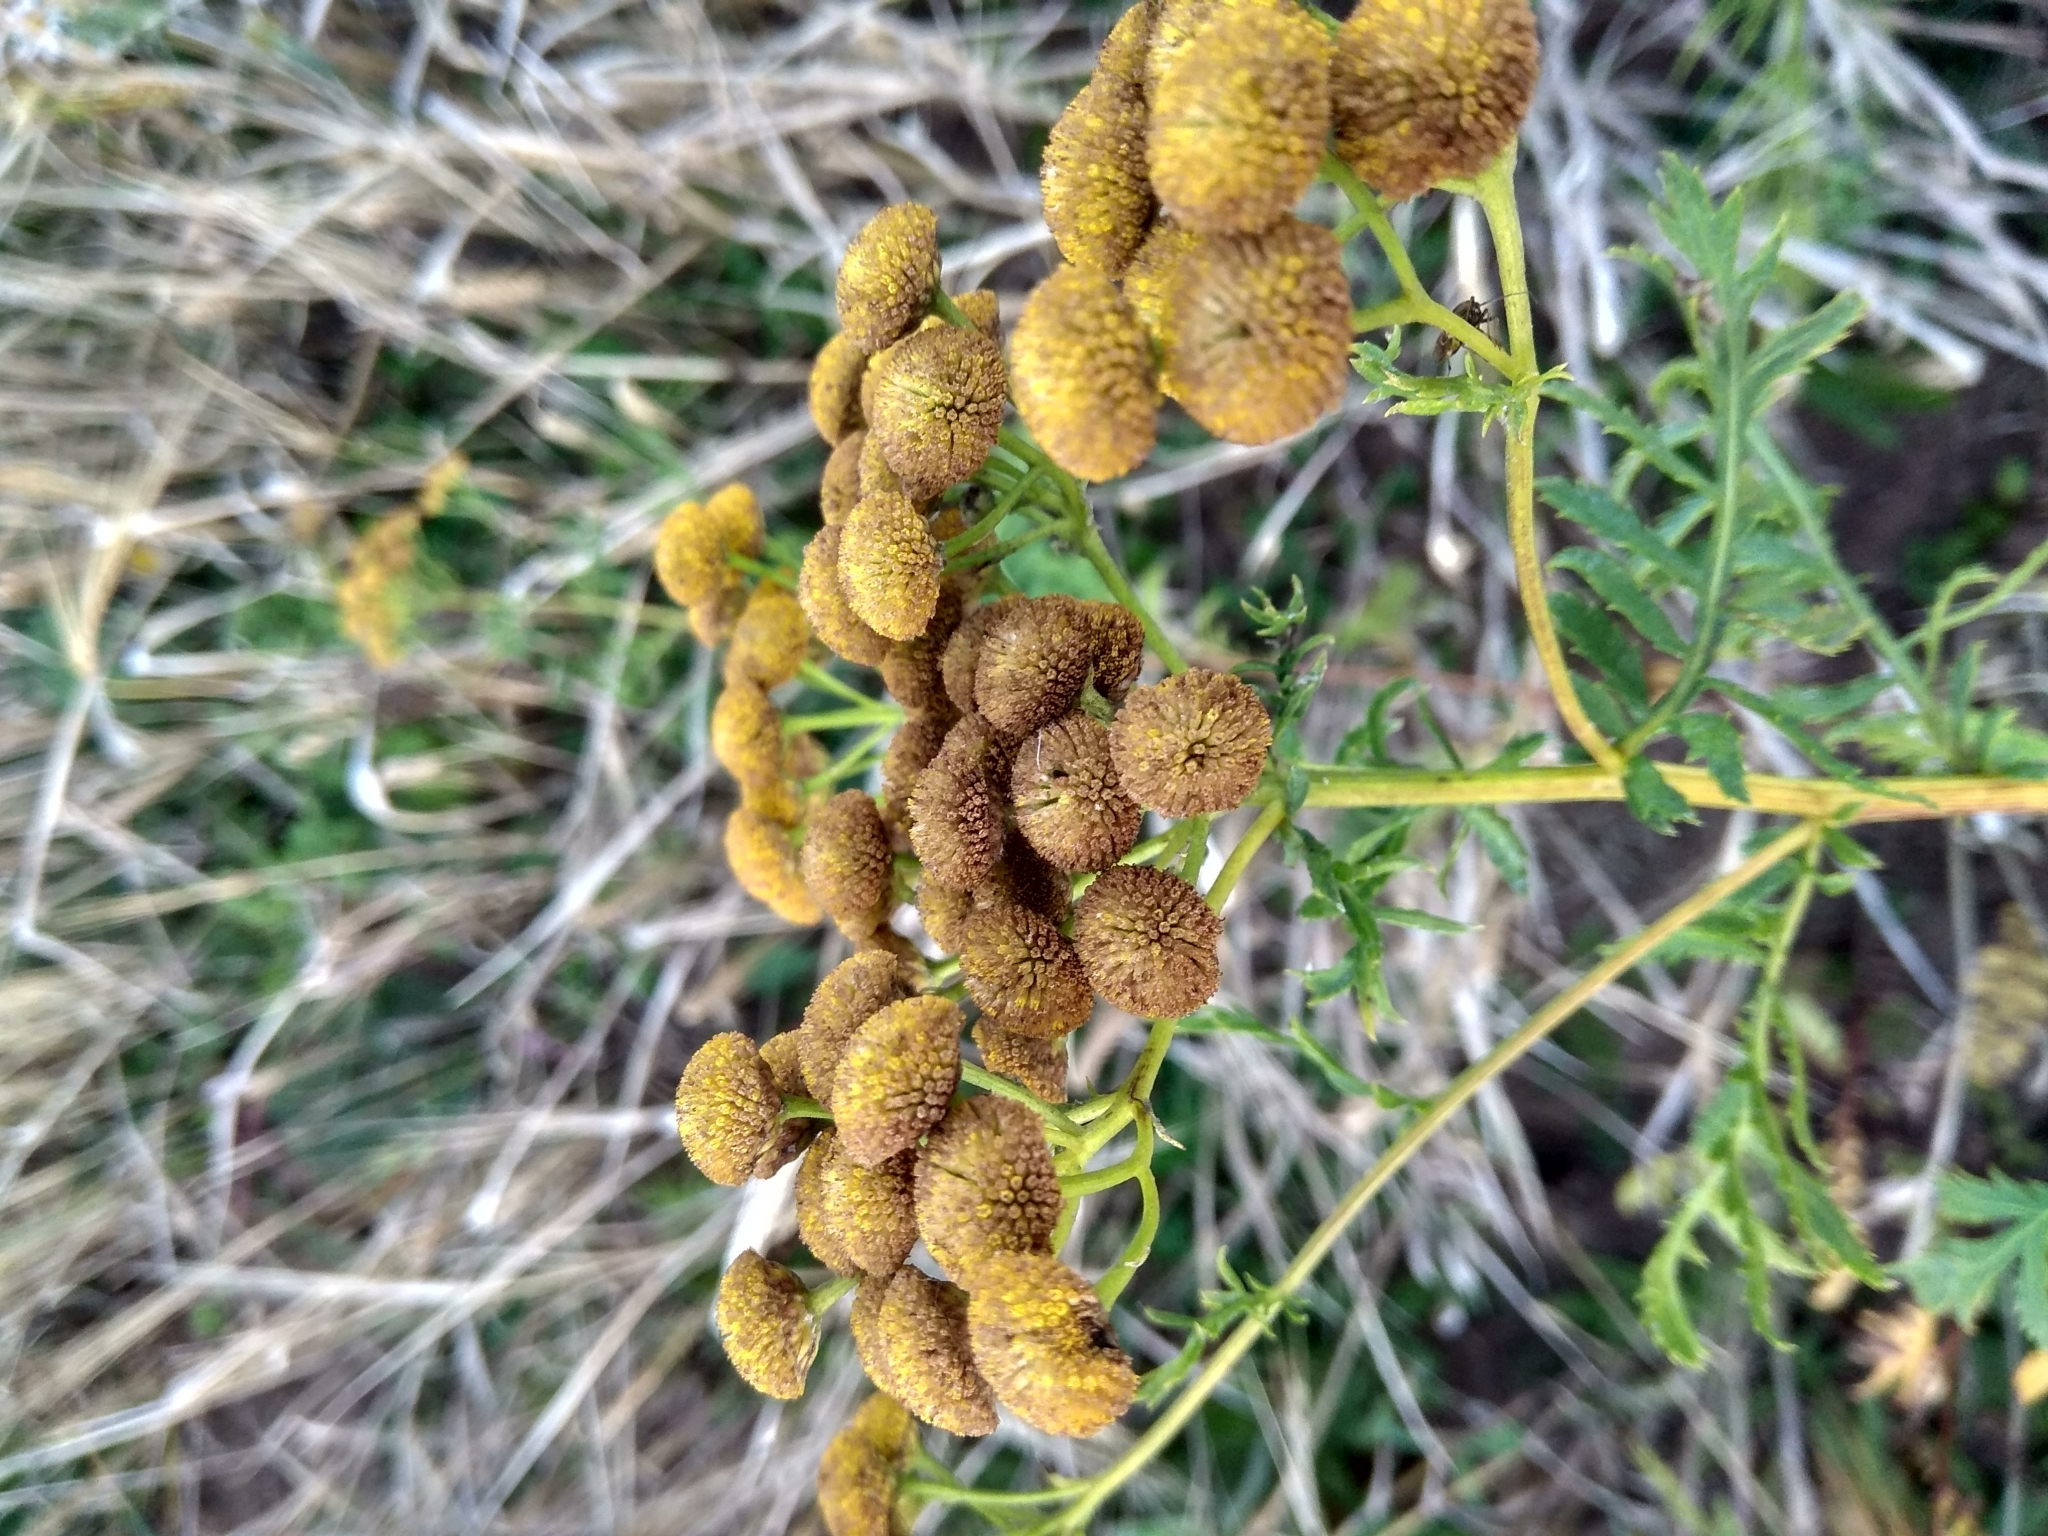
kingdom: Plantae
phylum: Tracheophyta
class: Magnoliopsida
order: Asterales
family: Asteraceae
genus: Tanacetum
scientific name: Tanacetum vulgare
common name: Common tansy
